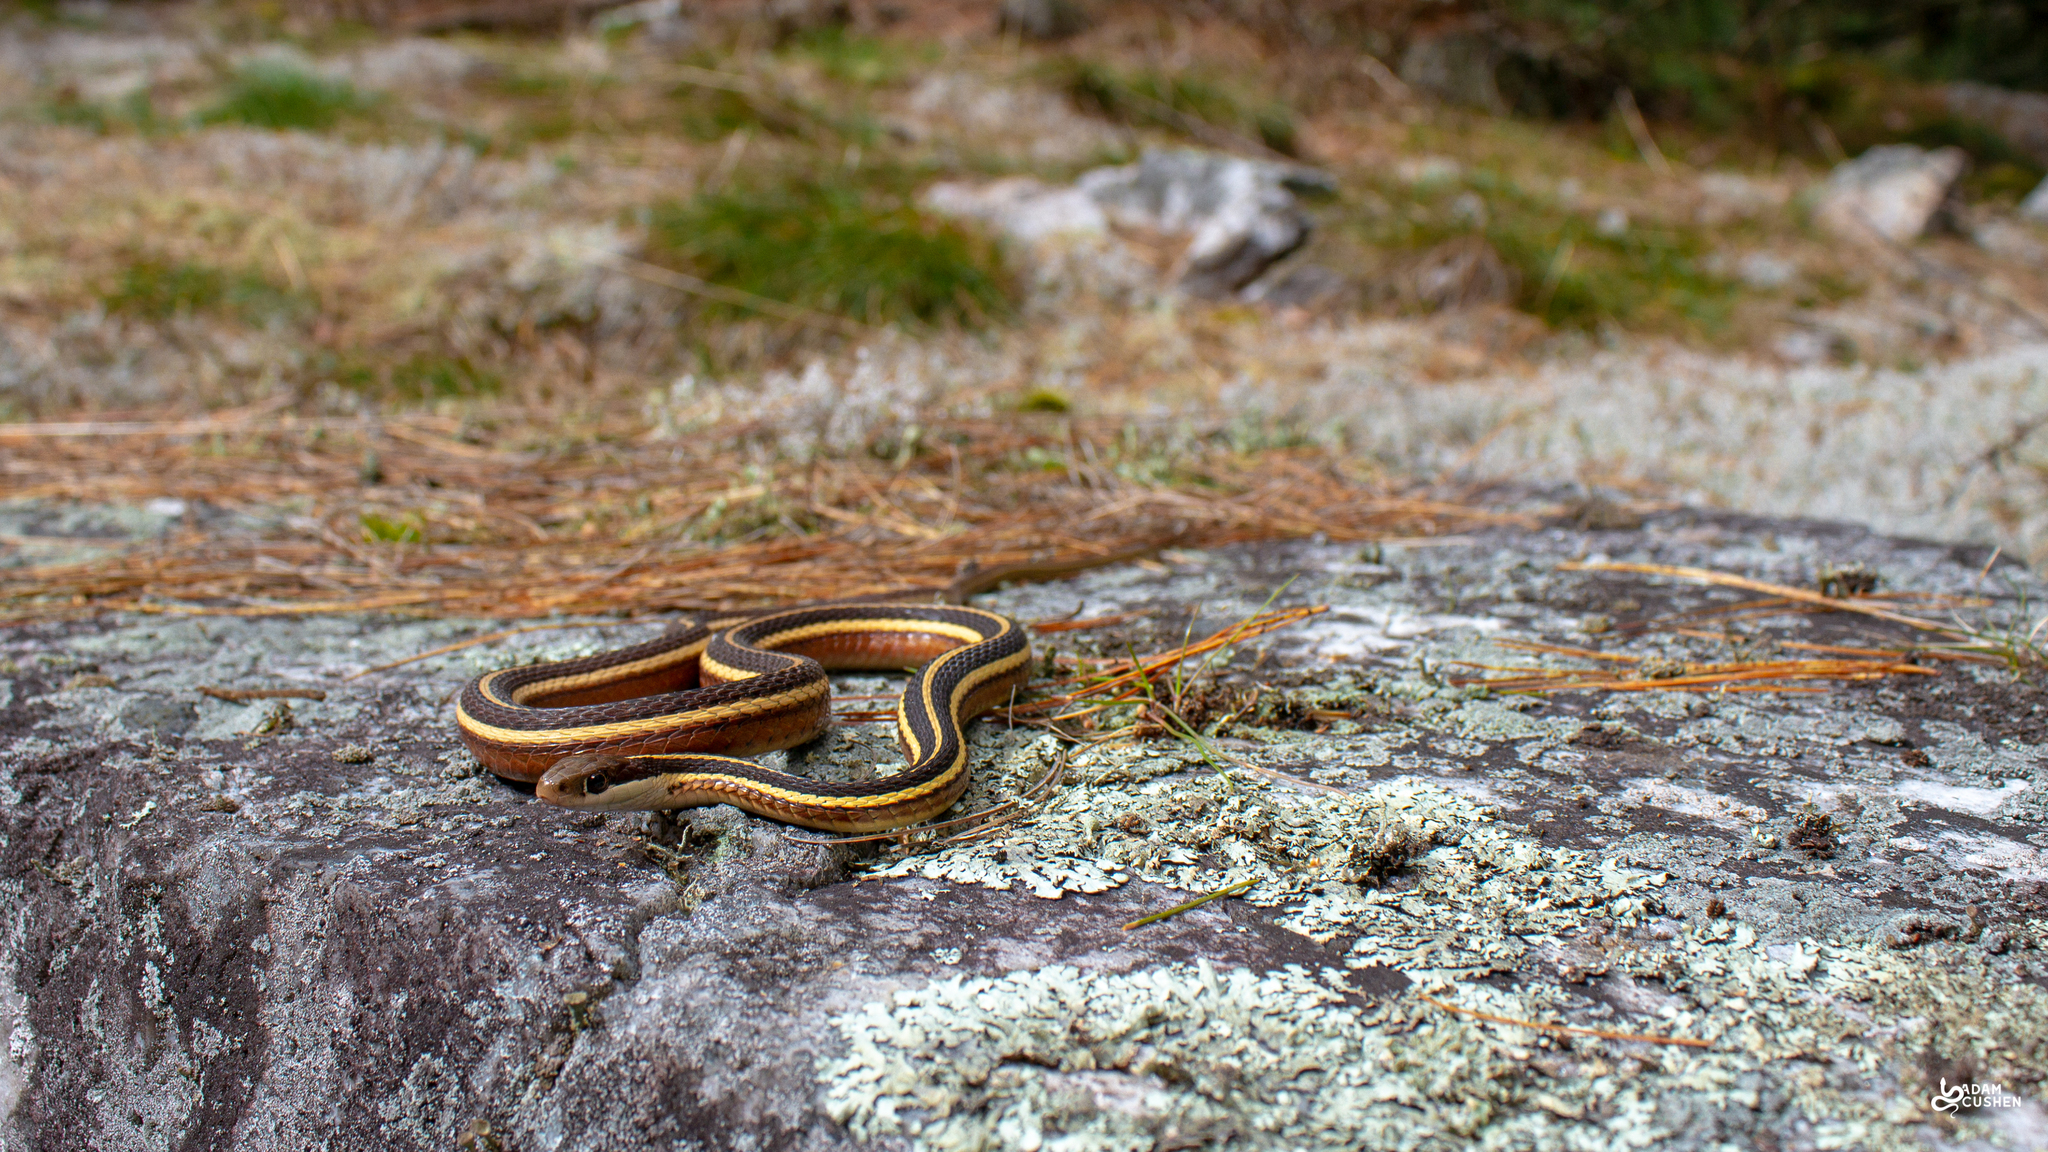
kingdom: Animalia
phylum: Chordata
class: Squamata
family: Colubridae
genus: Thamnophis
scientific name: Thamnophis saurita
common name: Eastern ribbonsnake
